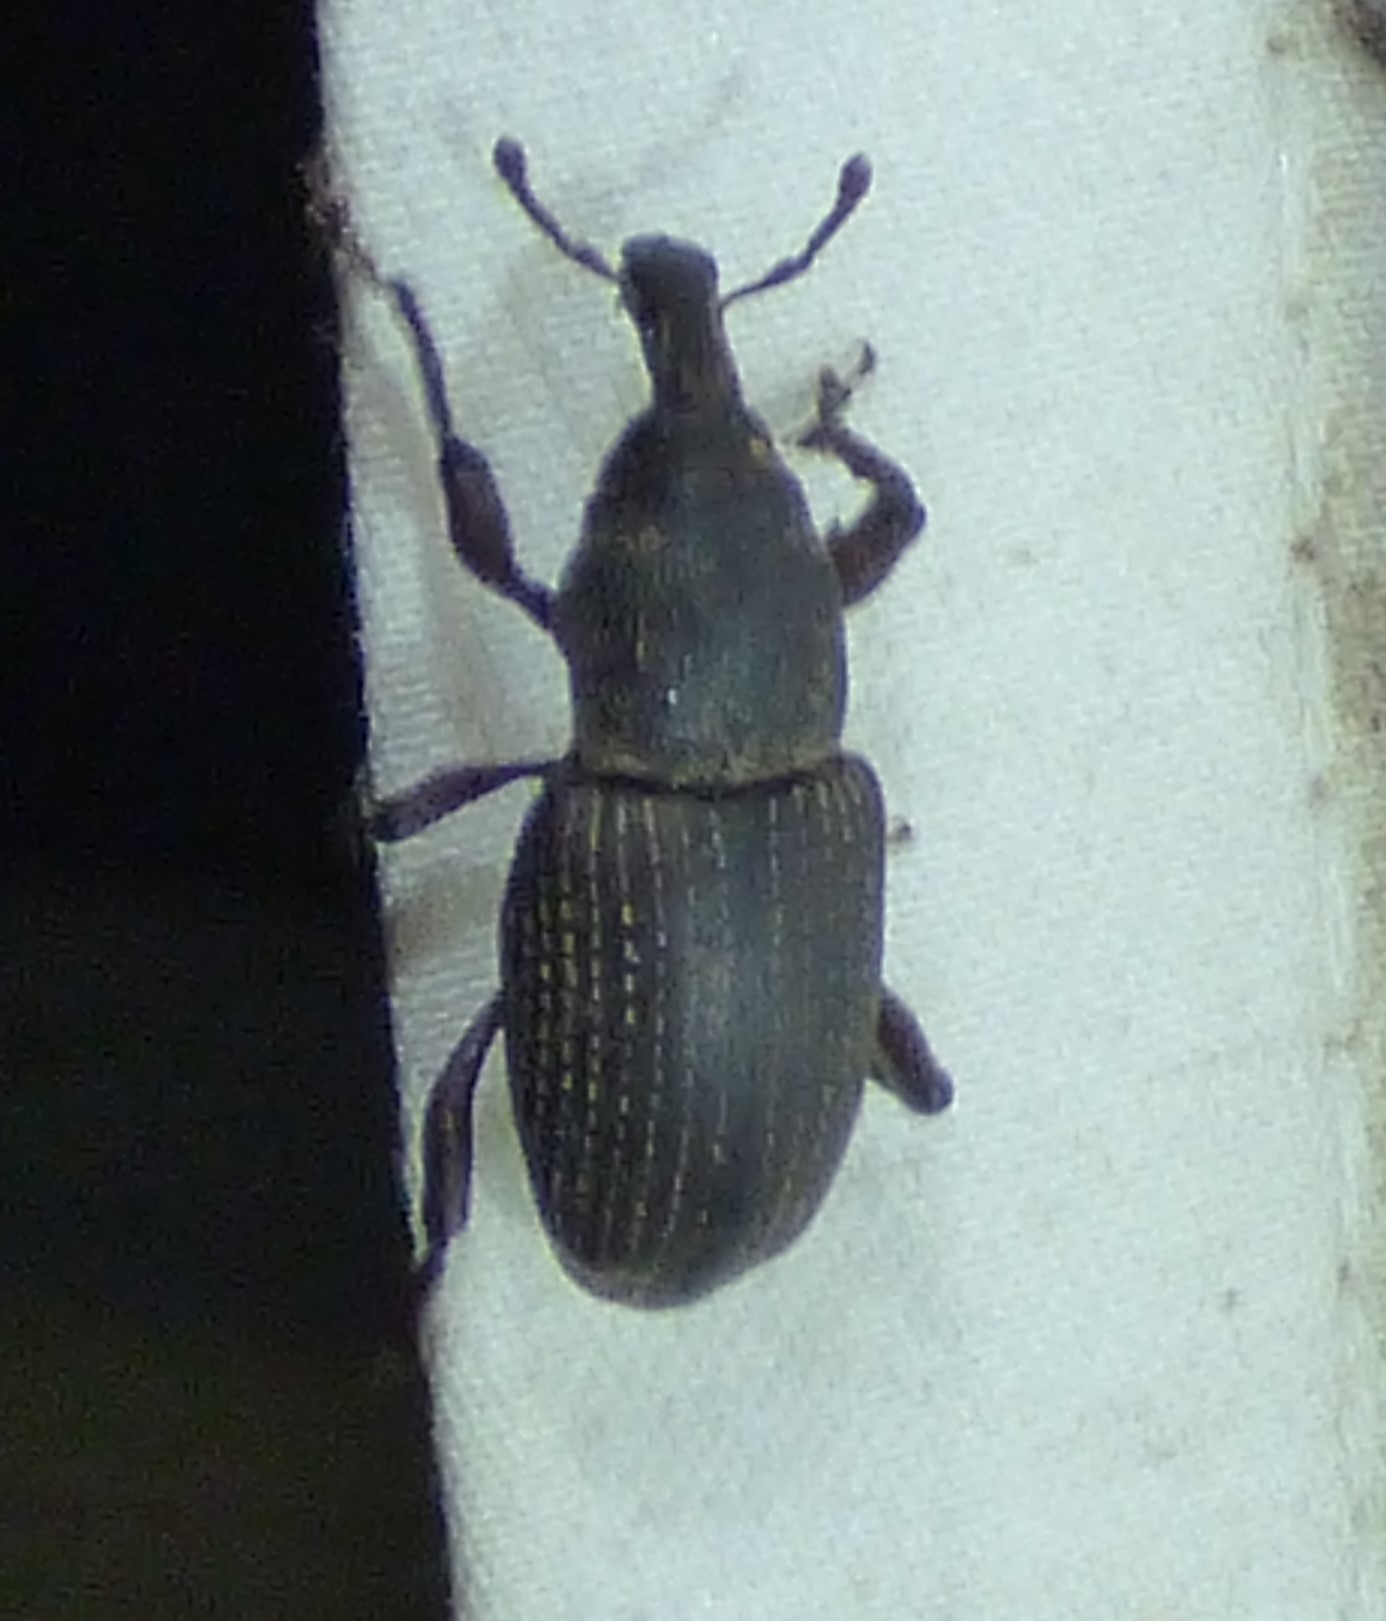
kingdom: Animalia
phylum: Arthropoda
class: Insecta
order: Coleoptera
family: Curculionidae
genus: Pachylobius
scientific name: Pachylobius picivorus
